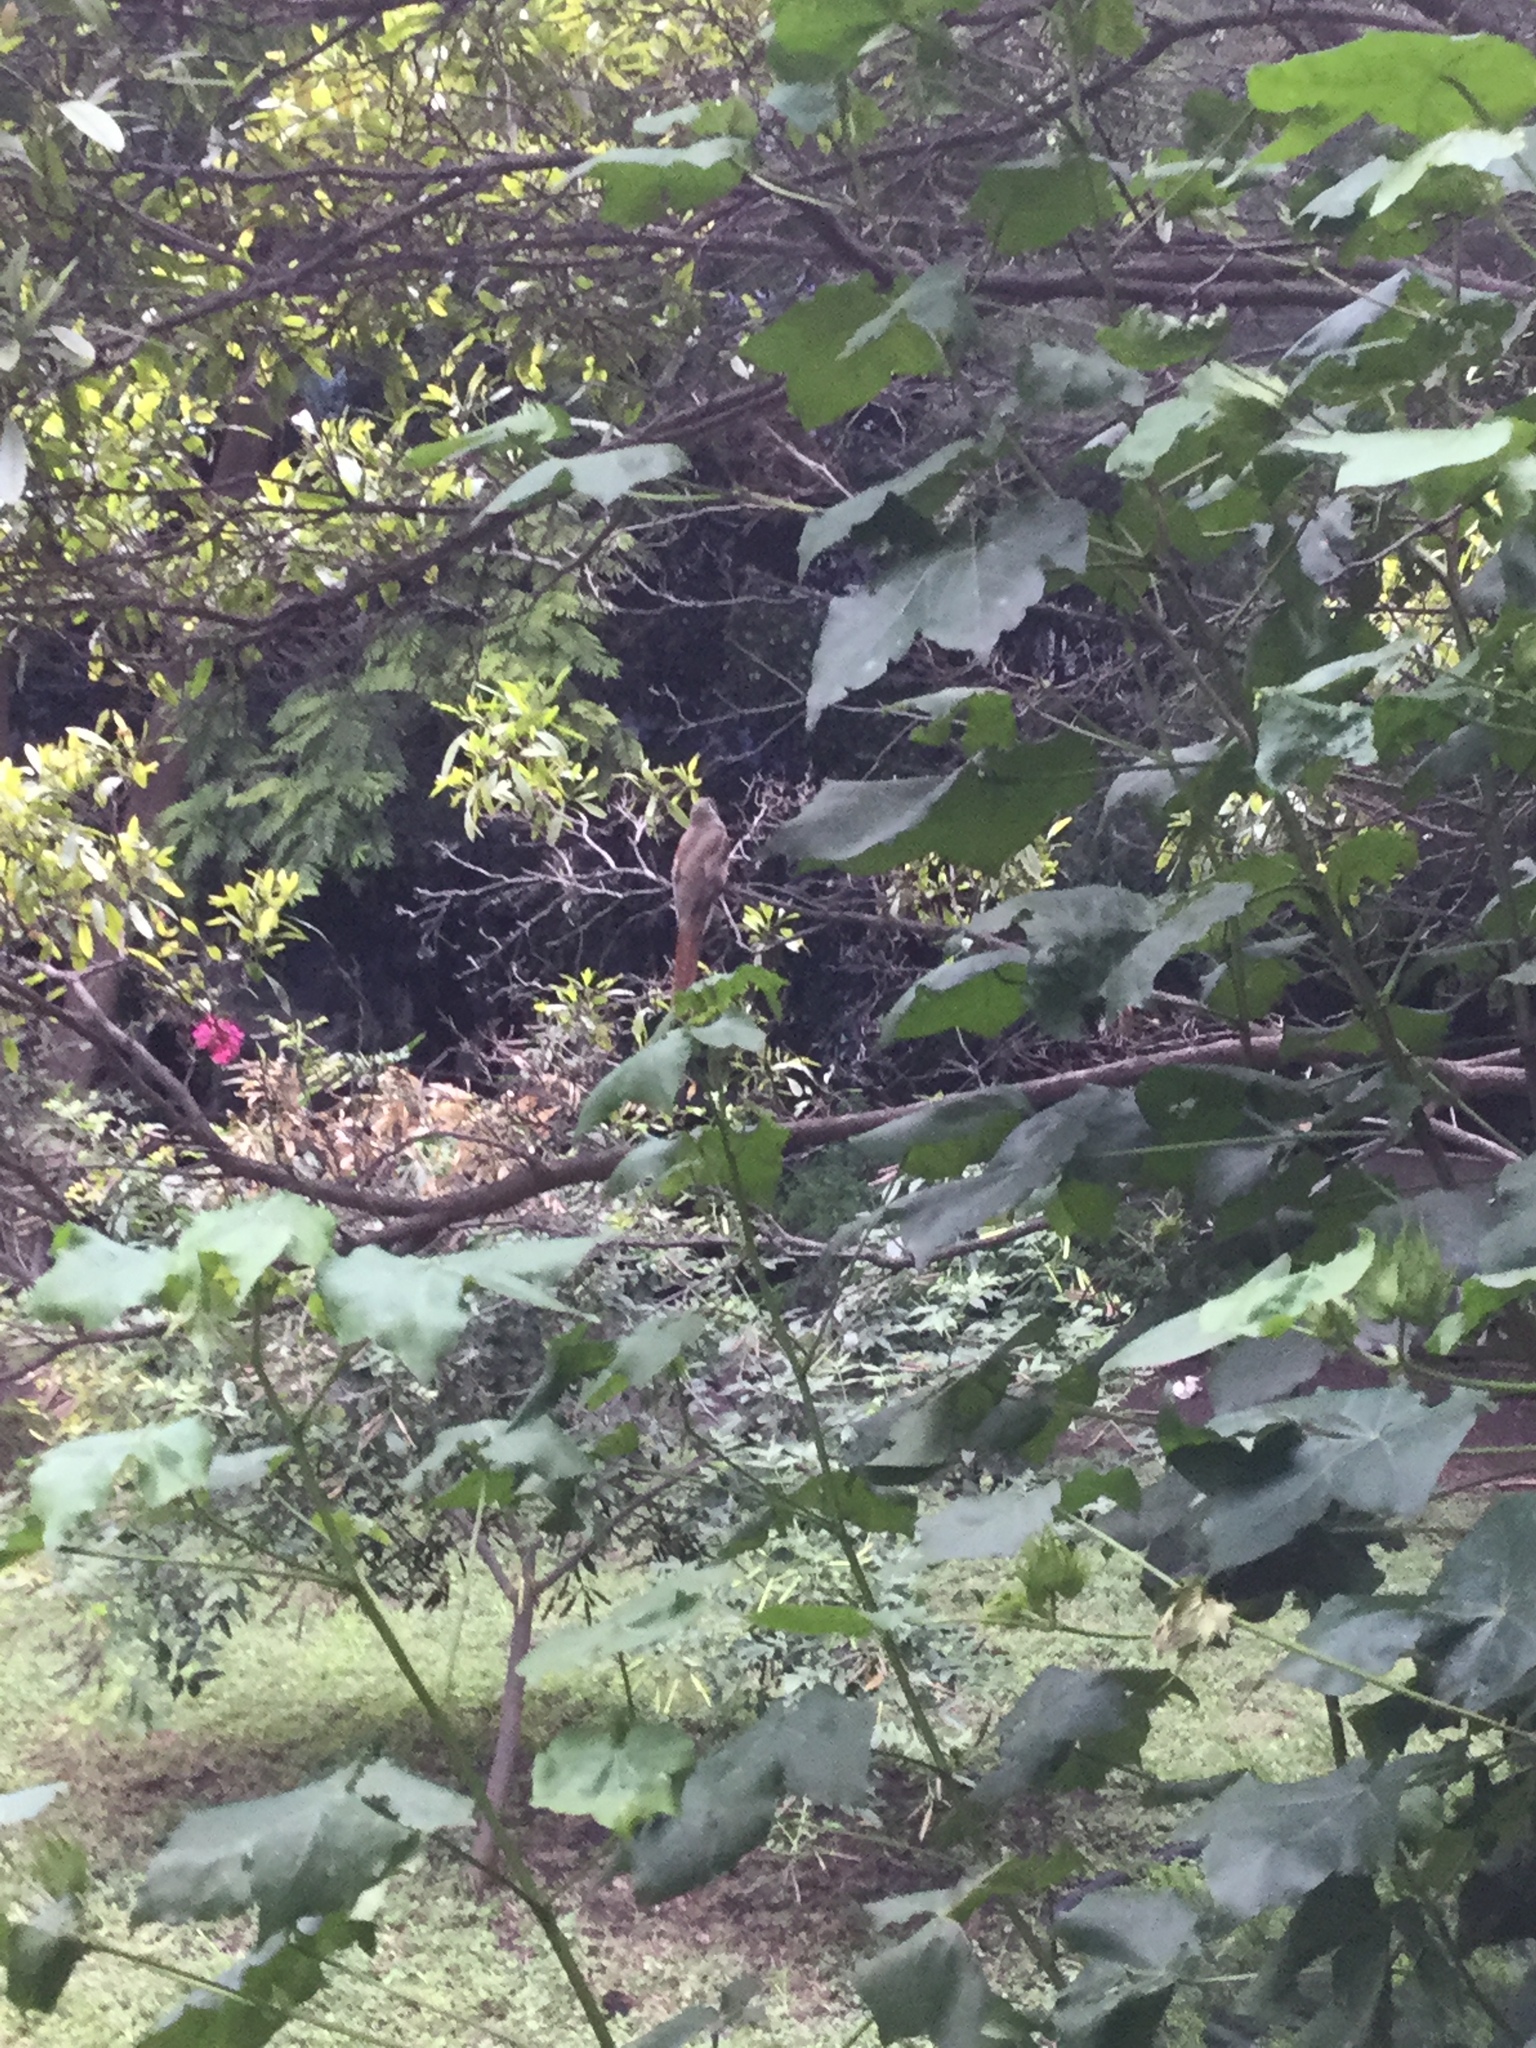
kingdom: Animalia
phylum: Chordata
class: Aves
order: Trogoniformes
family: Trogonidae
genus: Trogon
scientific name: Trogon elegans
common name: Elegant trogon
